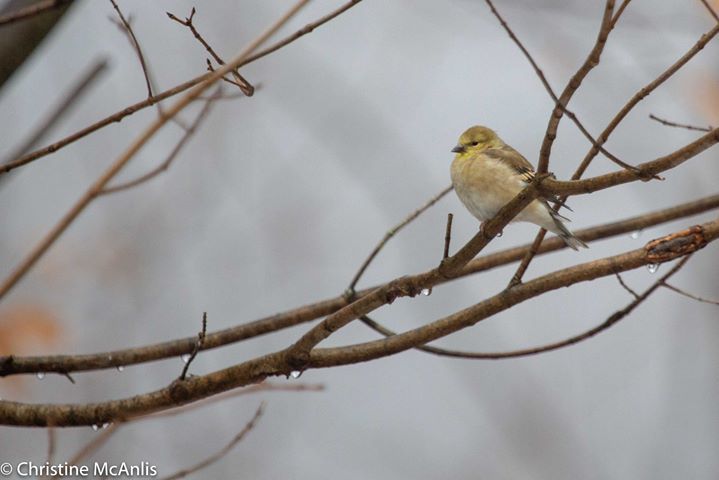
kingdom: Animalia
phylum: Chordata
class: Aves
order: Passeriformes
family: Fringillidae
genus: Spinus
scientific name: Spinus tristis
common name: American goldfinch
